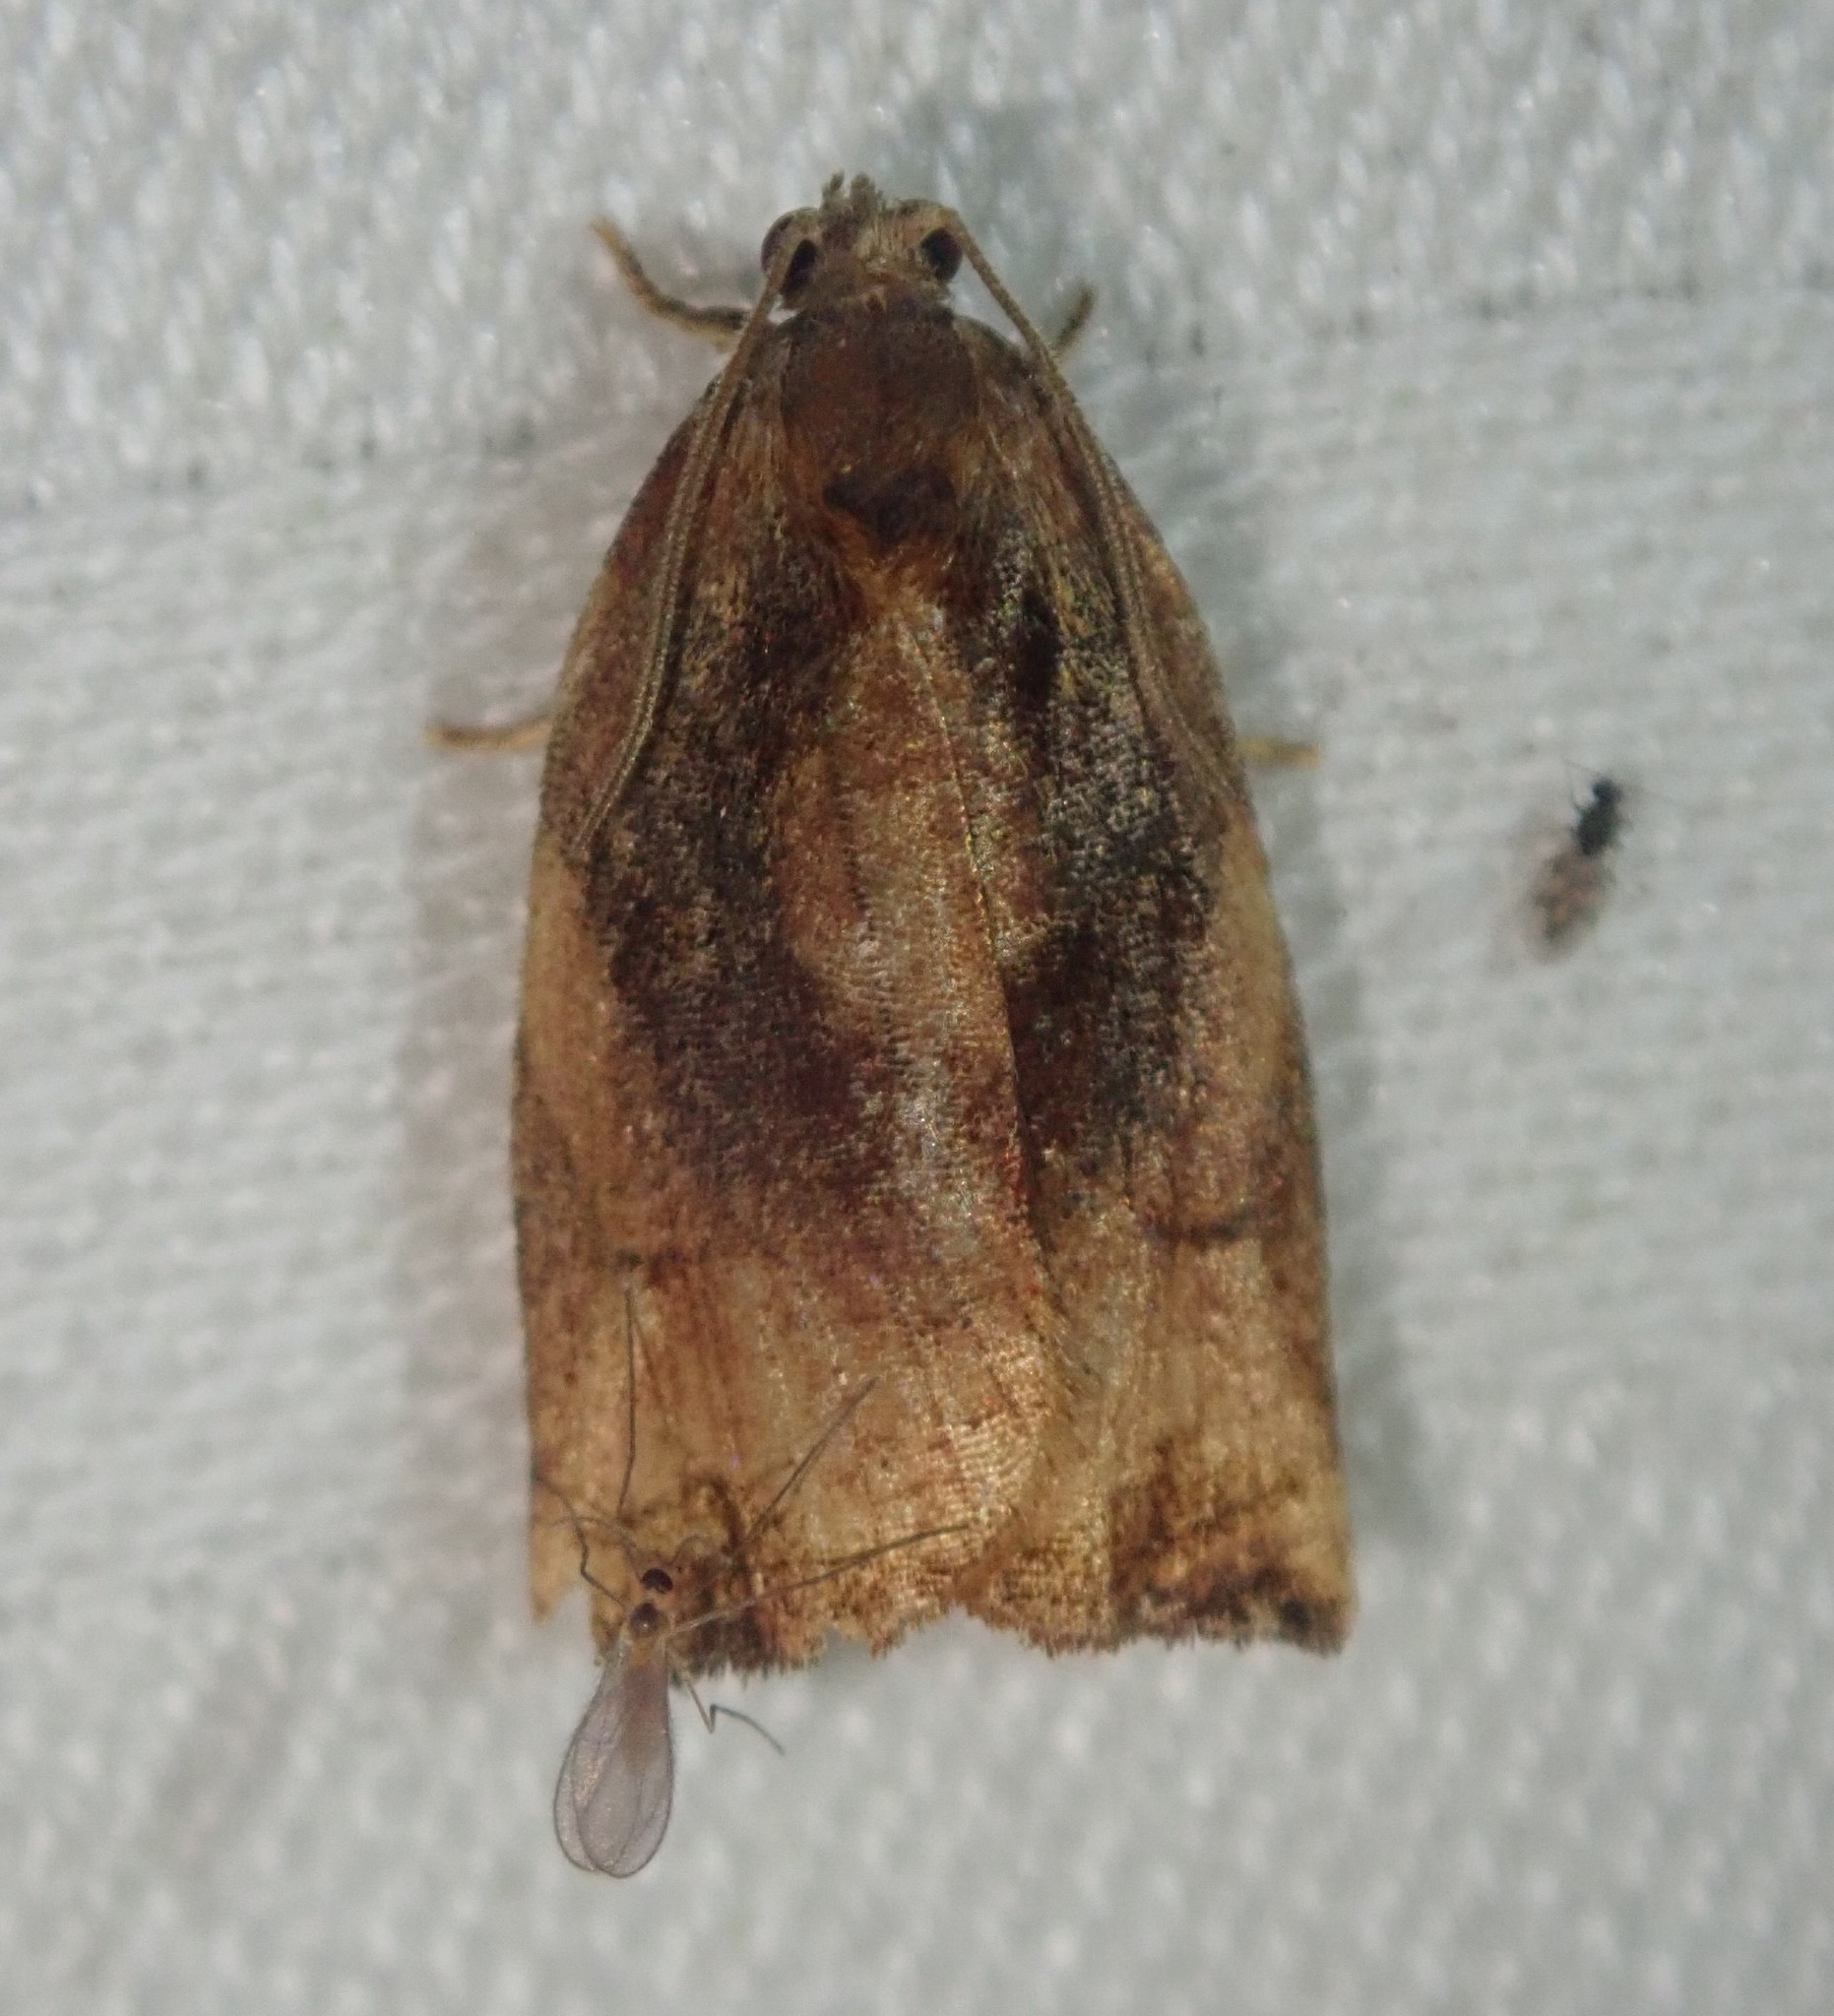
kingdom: Animalia
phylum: Arthropoda
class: Insecta
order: Lepidoptera
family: Tortricidae
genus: Archips
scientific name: Archips podana
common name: Large fruit-tree tortrix
